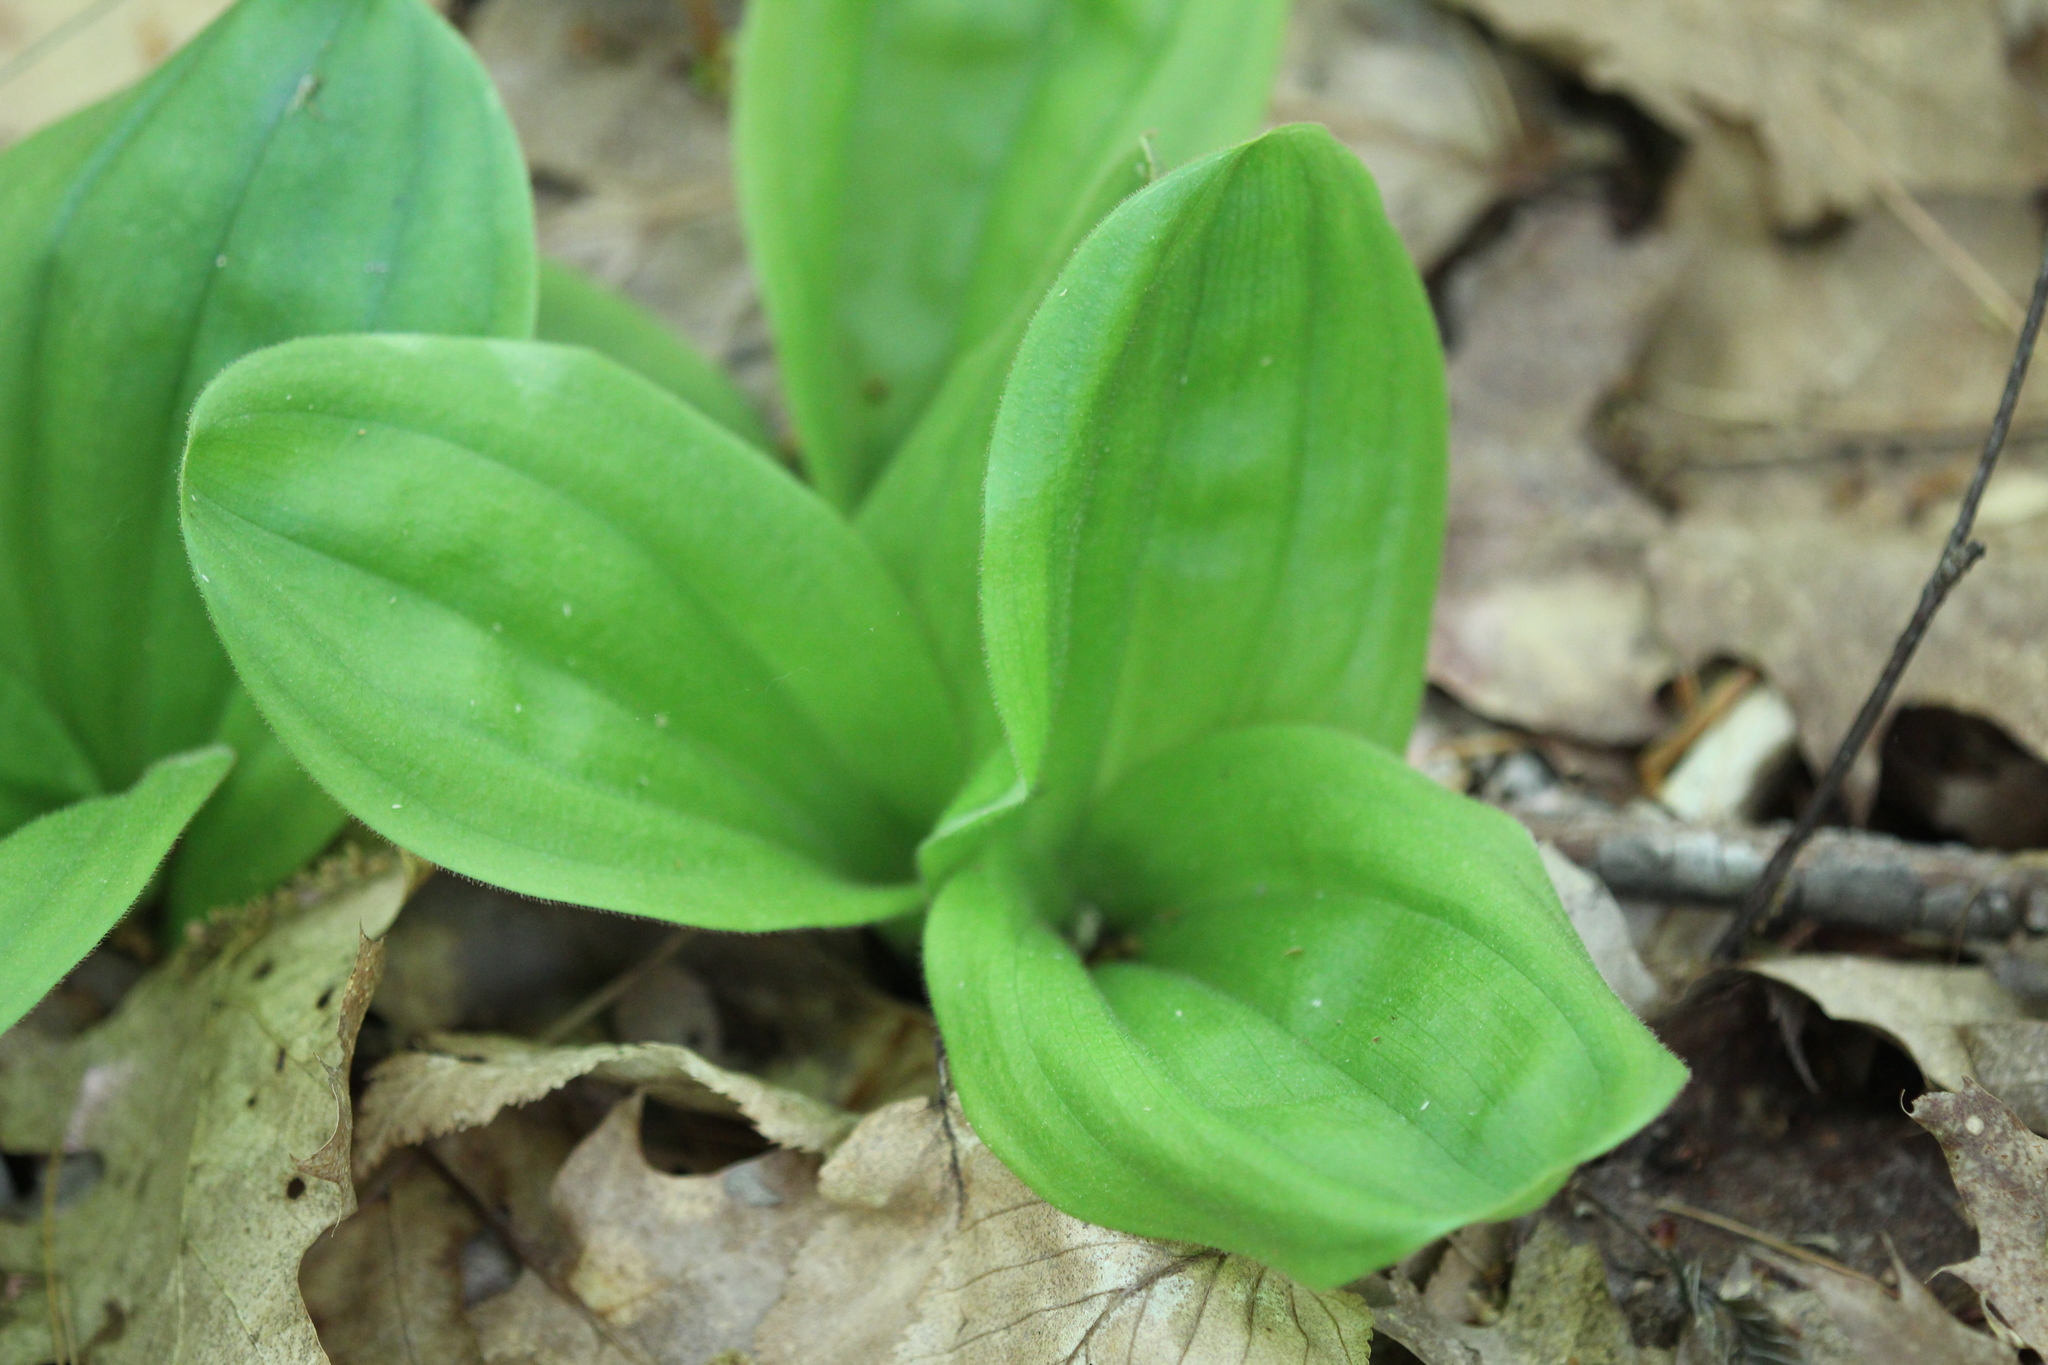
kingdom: Plantae
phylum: Tracheophyta
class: Liliopsida
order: Asparagales
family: Orchidaceae
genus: Cypripedium
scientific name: Cypripedium acaule
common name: Pink lady's-slipper
